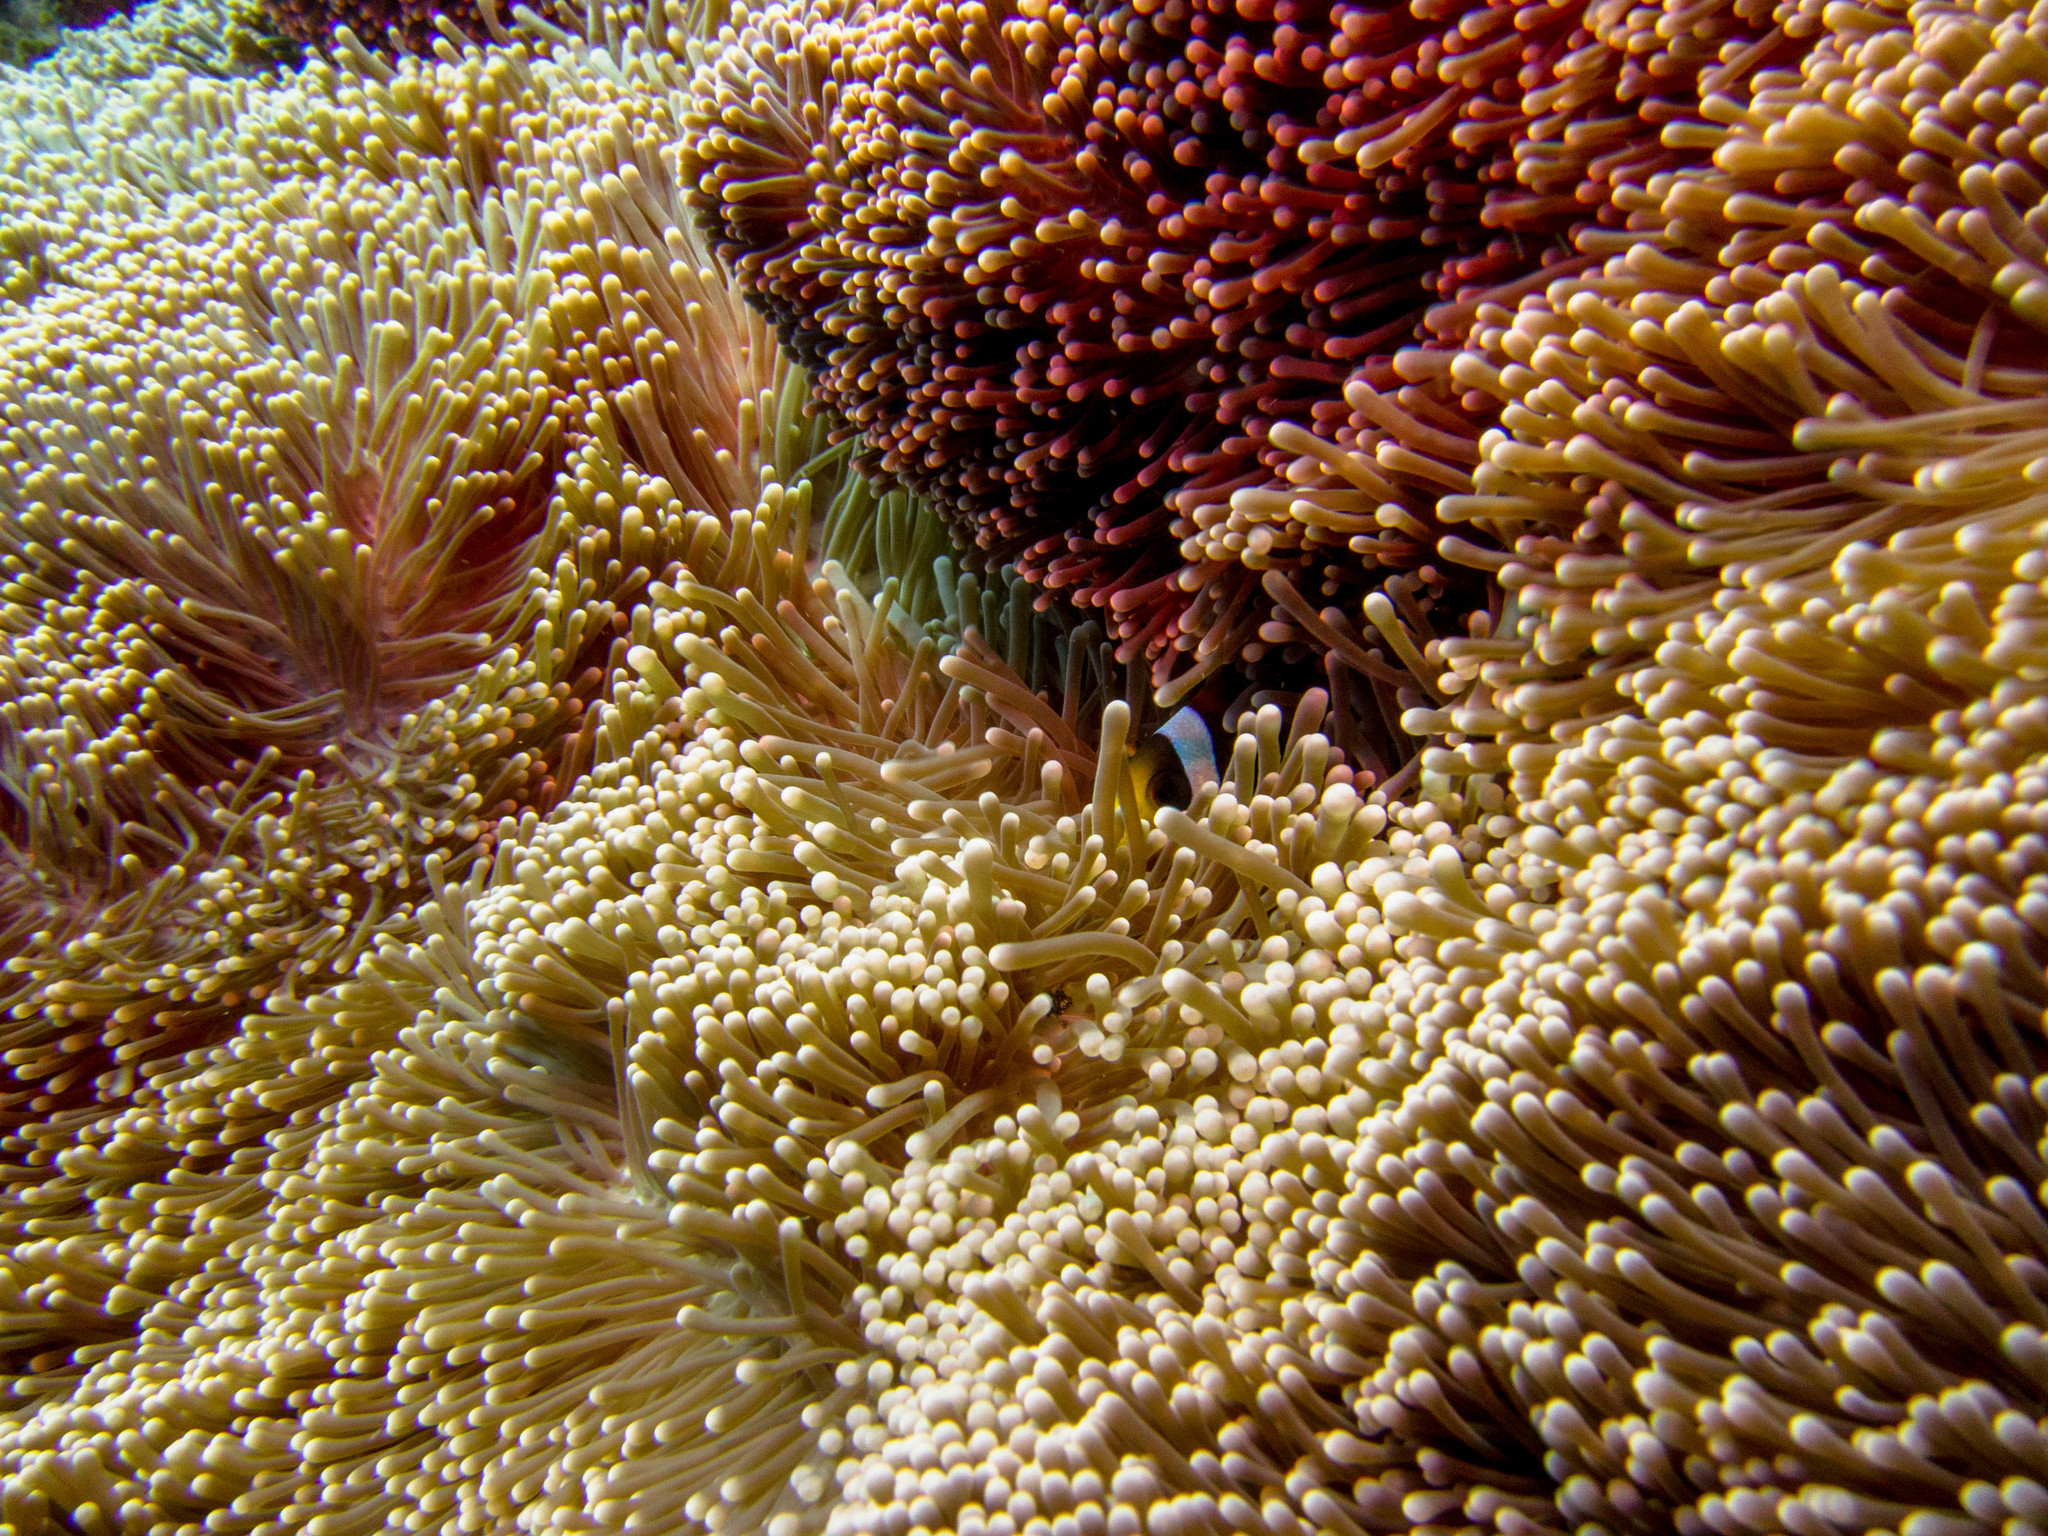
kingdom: Animalia
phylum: Cnidaria
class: Anthozoa
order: Actiniaria
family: Stichodactylidae
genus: Stichodactyla
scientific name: Stichodactyla mertensii
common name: Merten's sea anemone
